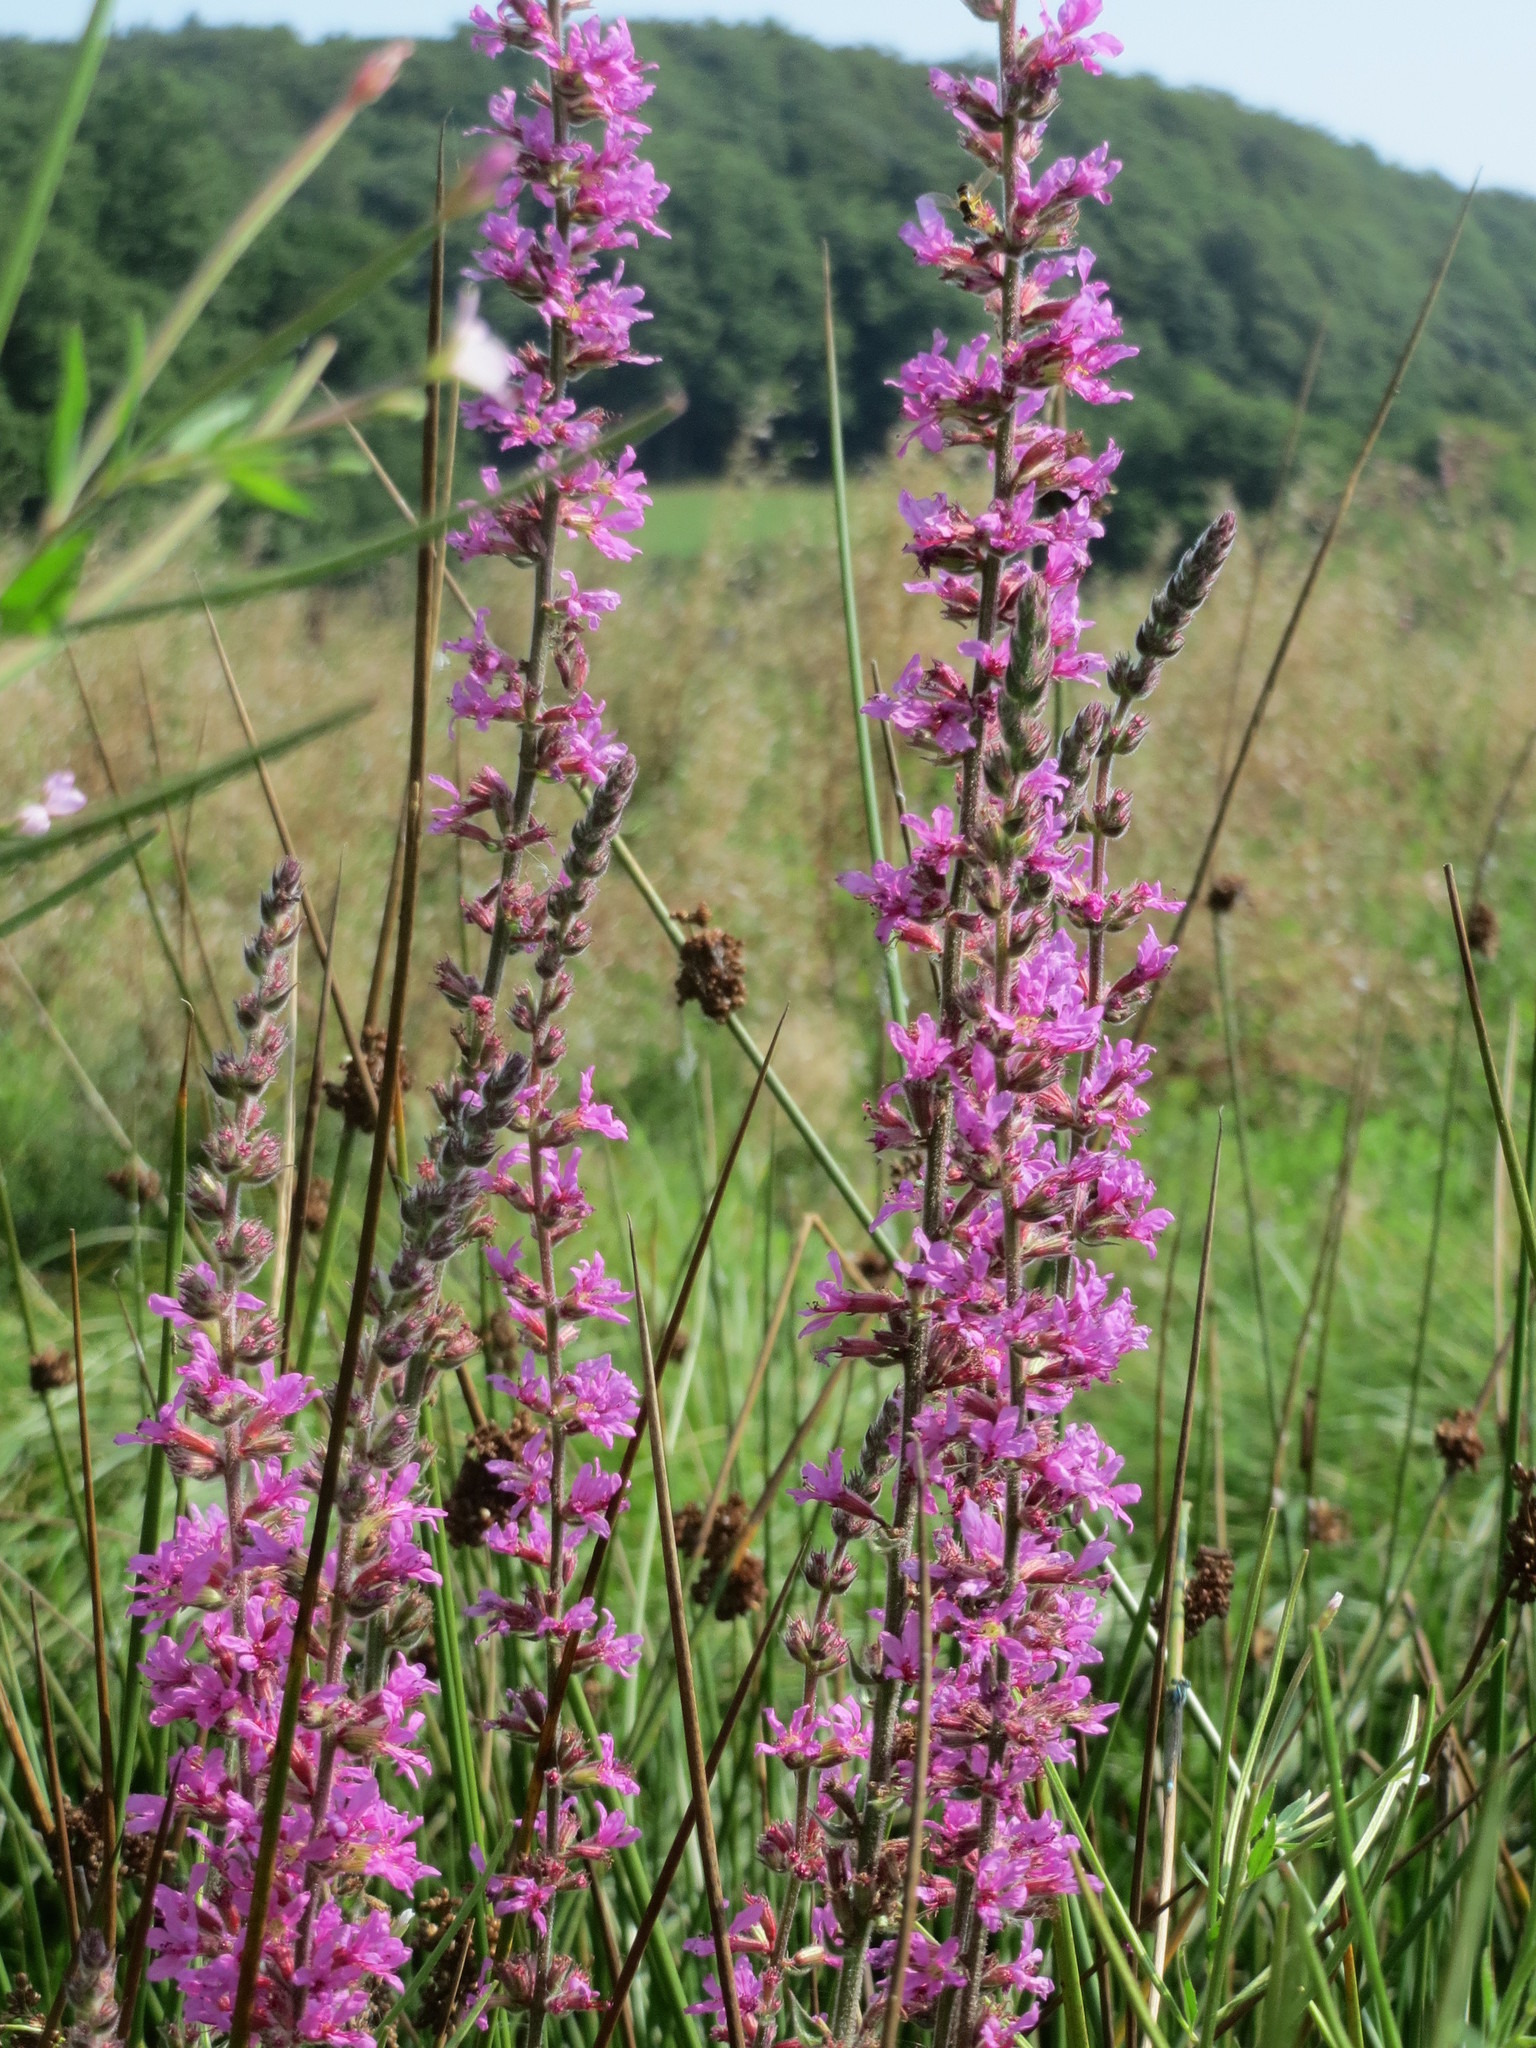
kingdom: Plantae
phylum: Tracheophyta
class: Magnoliopsida
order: Myrtales
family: Lythraceae
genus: Lythrum
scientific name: Lythrum salicaria
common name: Purple loosestrife
